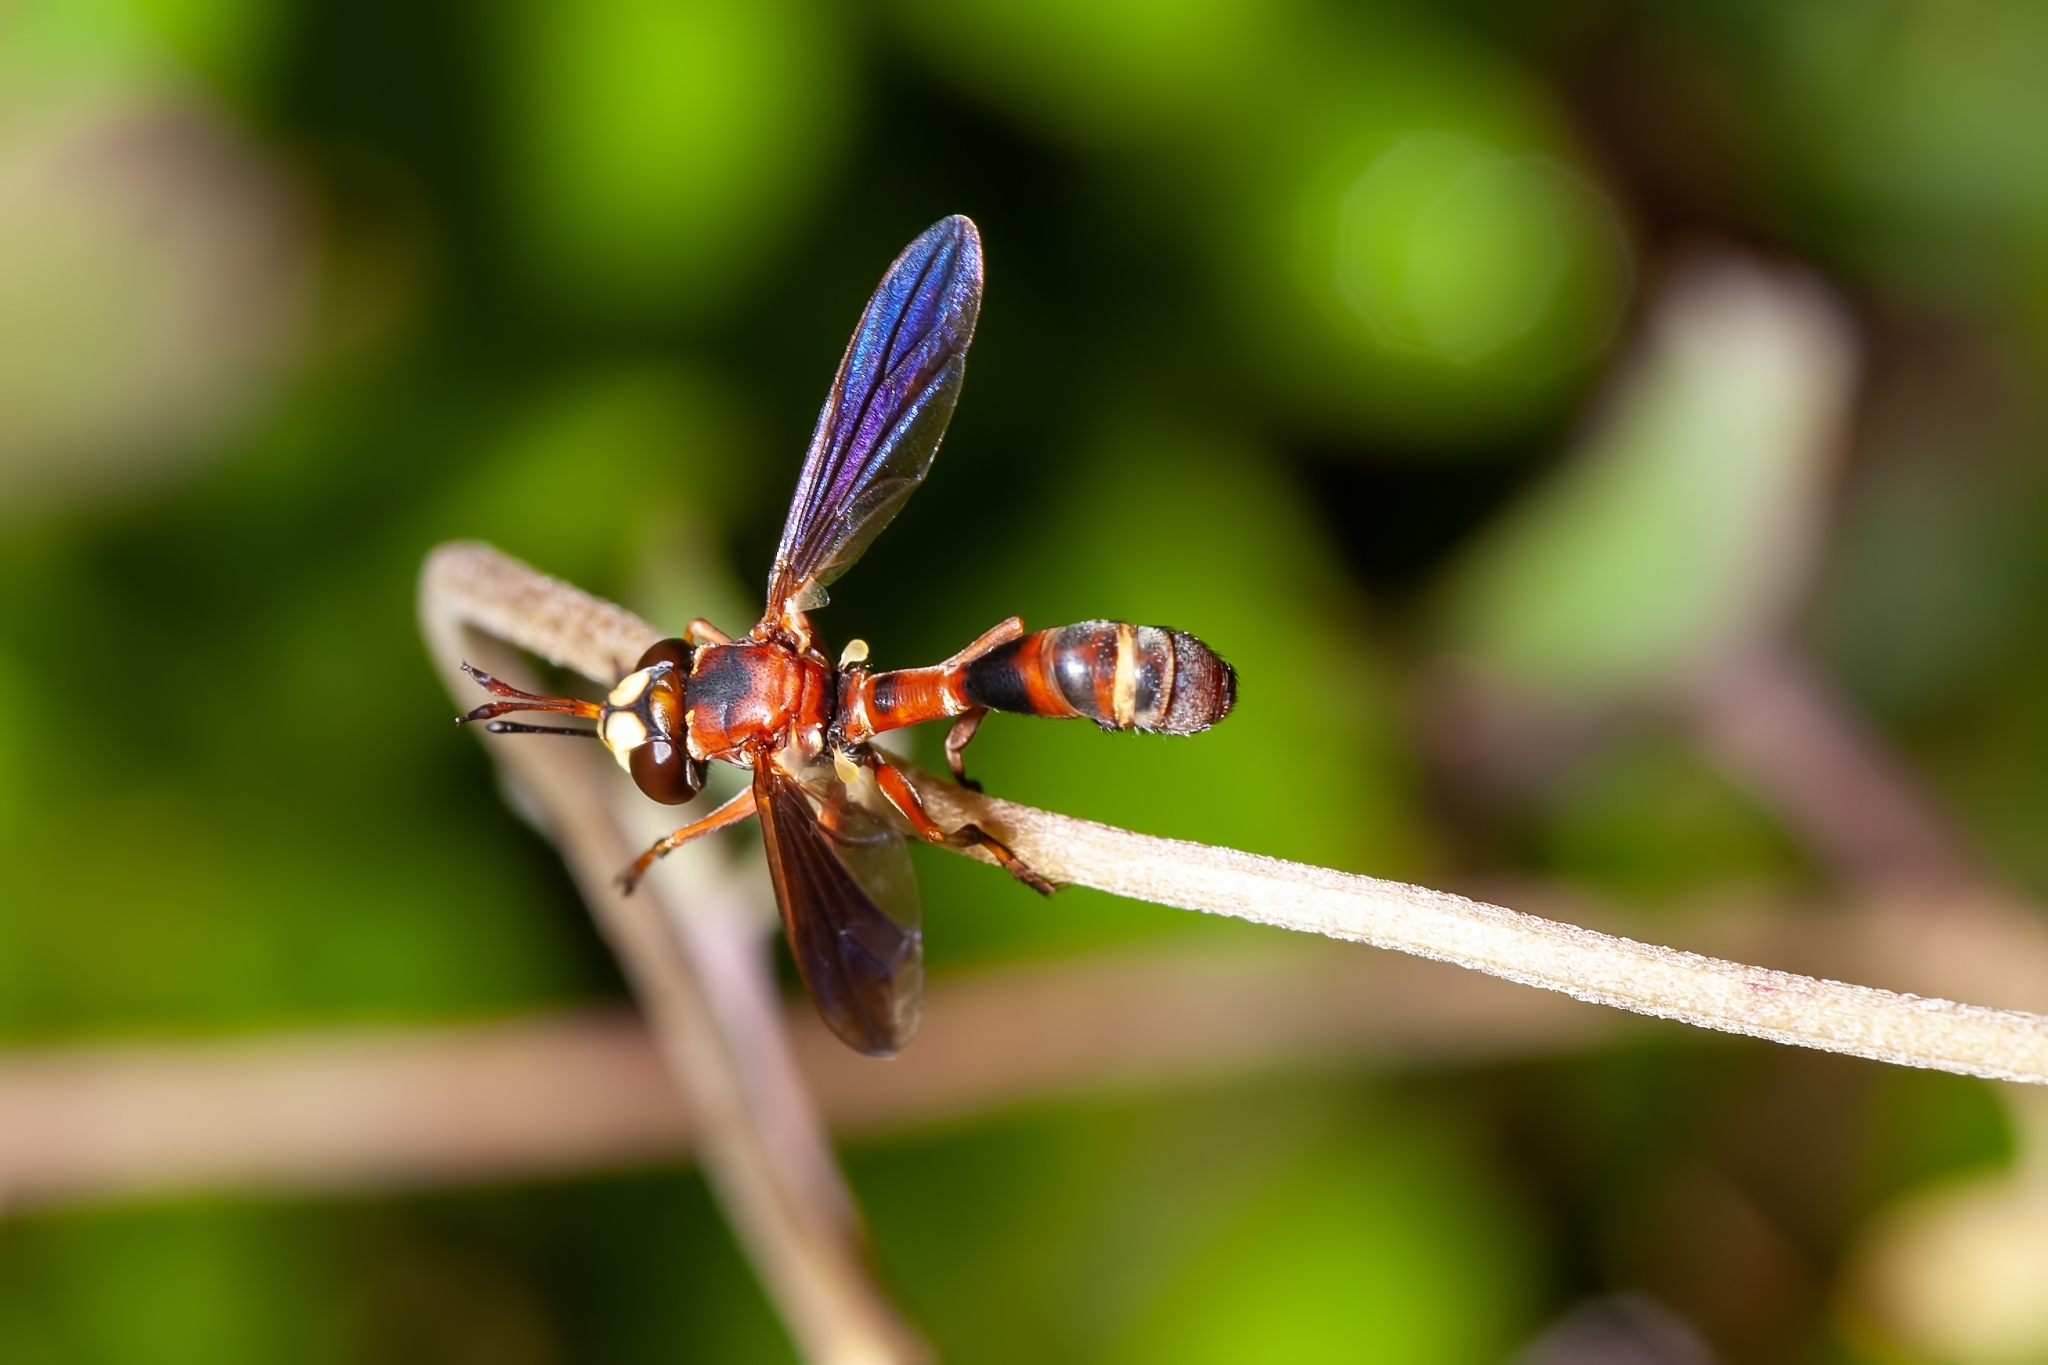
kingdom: Animalia
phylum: Arthropoda
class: Insecta
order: Diptera
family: Conopidae
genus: Physocephala
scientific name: Physocephala sagittaria
